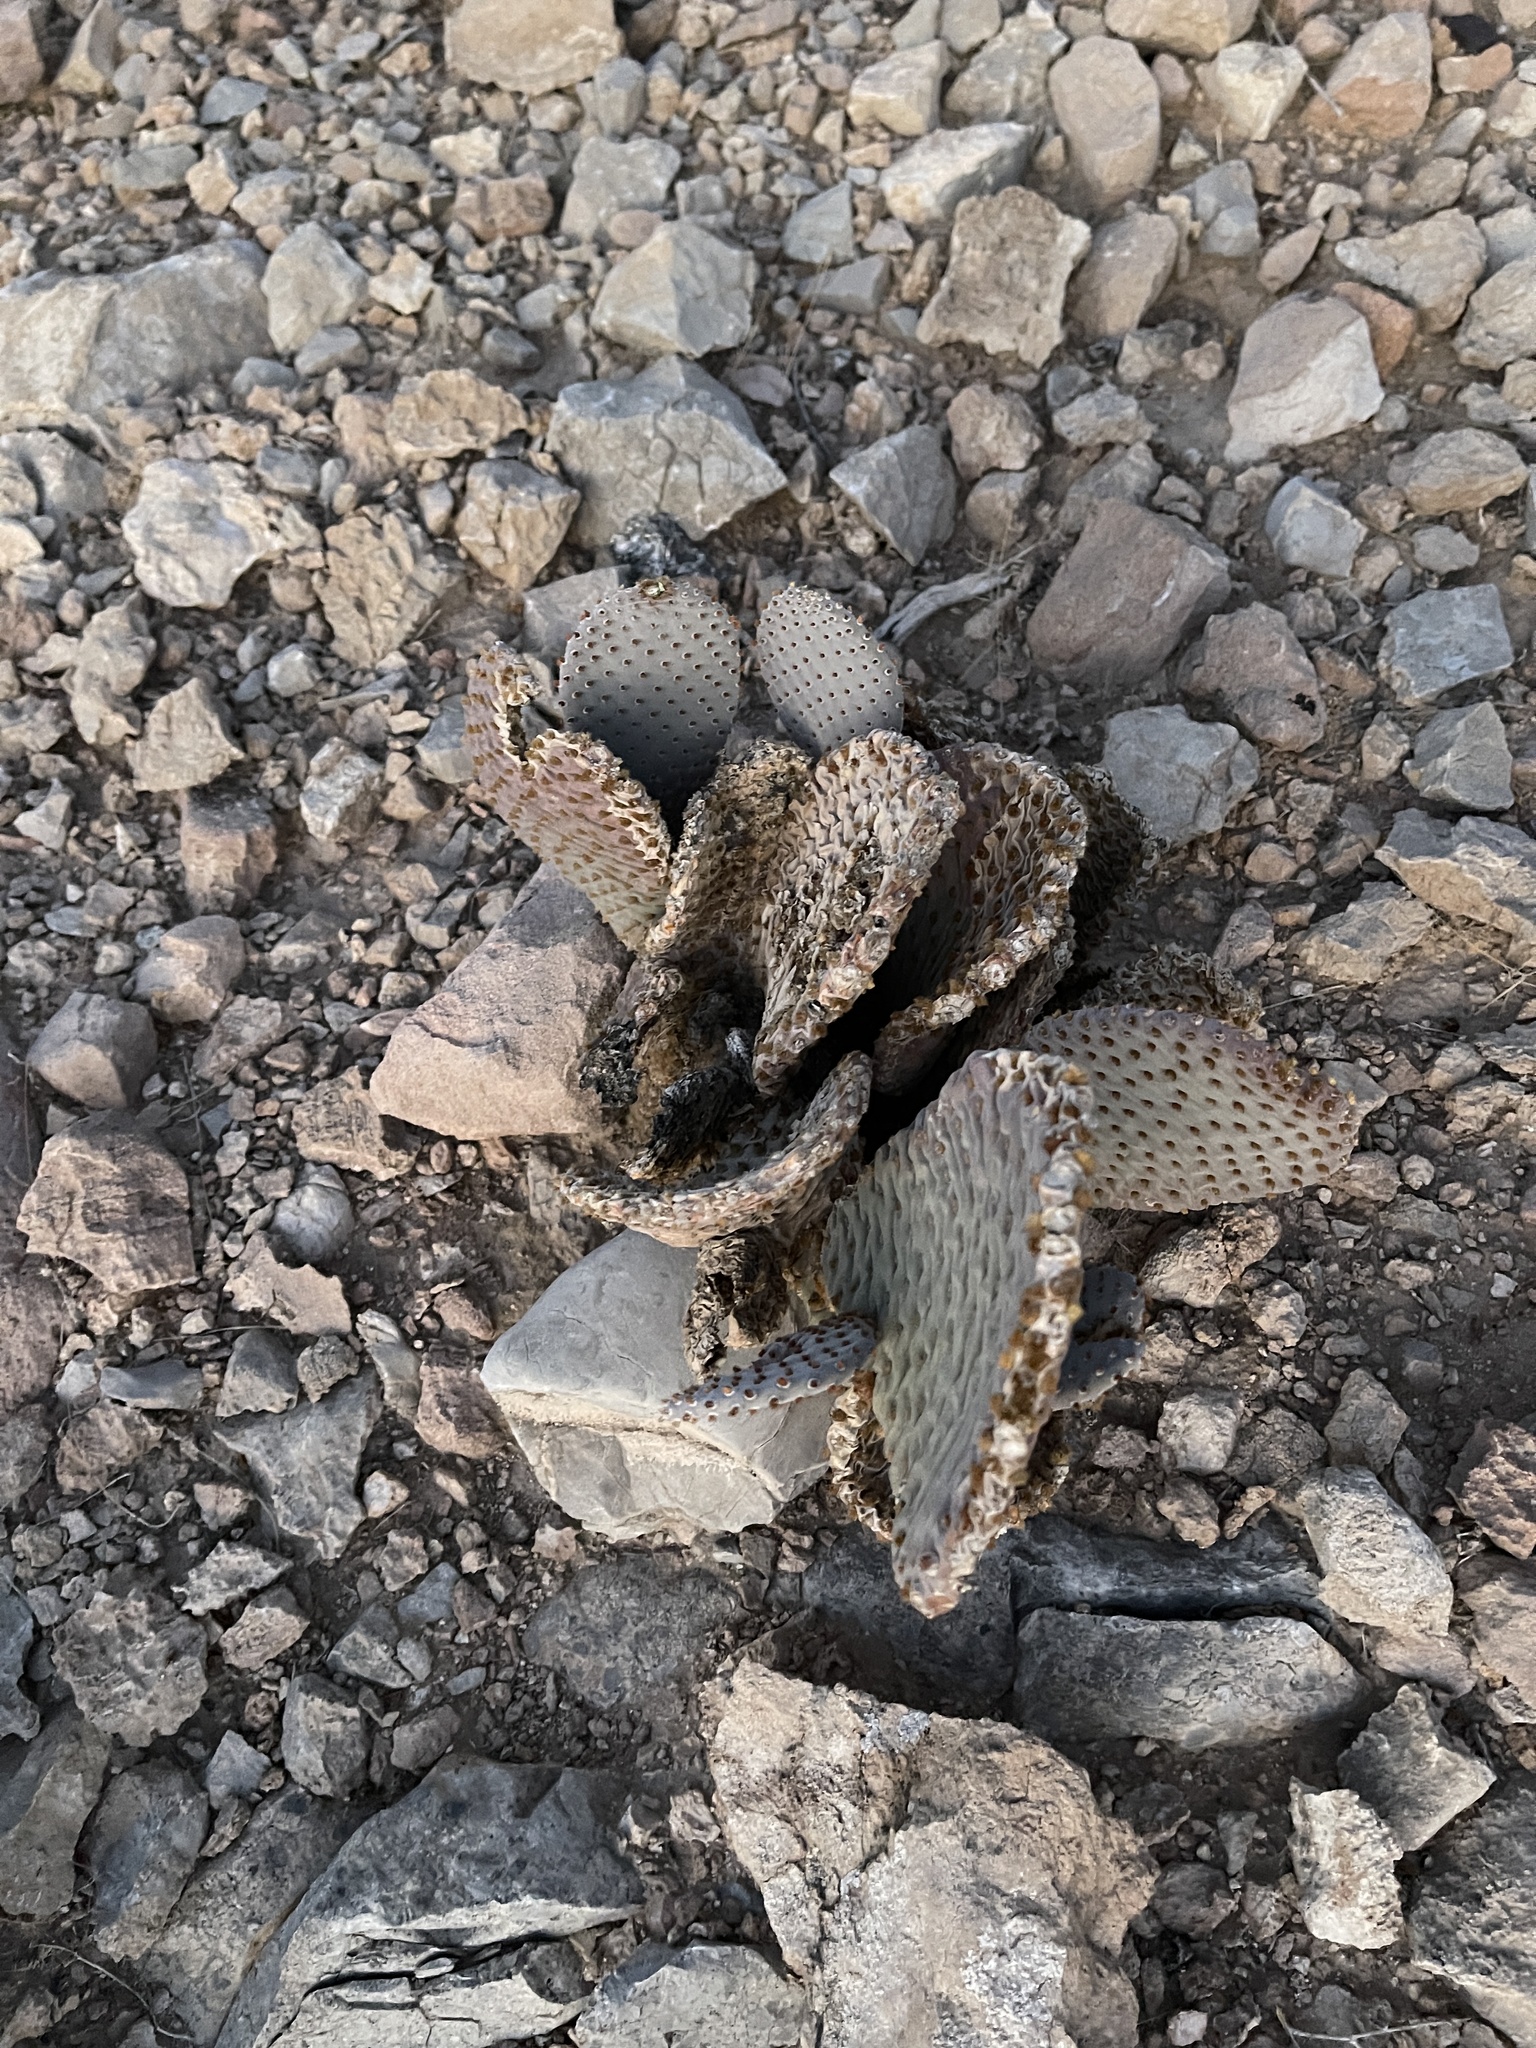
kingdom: Plantae
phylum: Tracheophyta
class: Magnoliopsida
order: Caryophyllales
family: Cactaceae
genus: Opuntia
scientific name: Opuntia basilaris
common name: Beavertail prickly-pear
